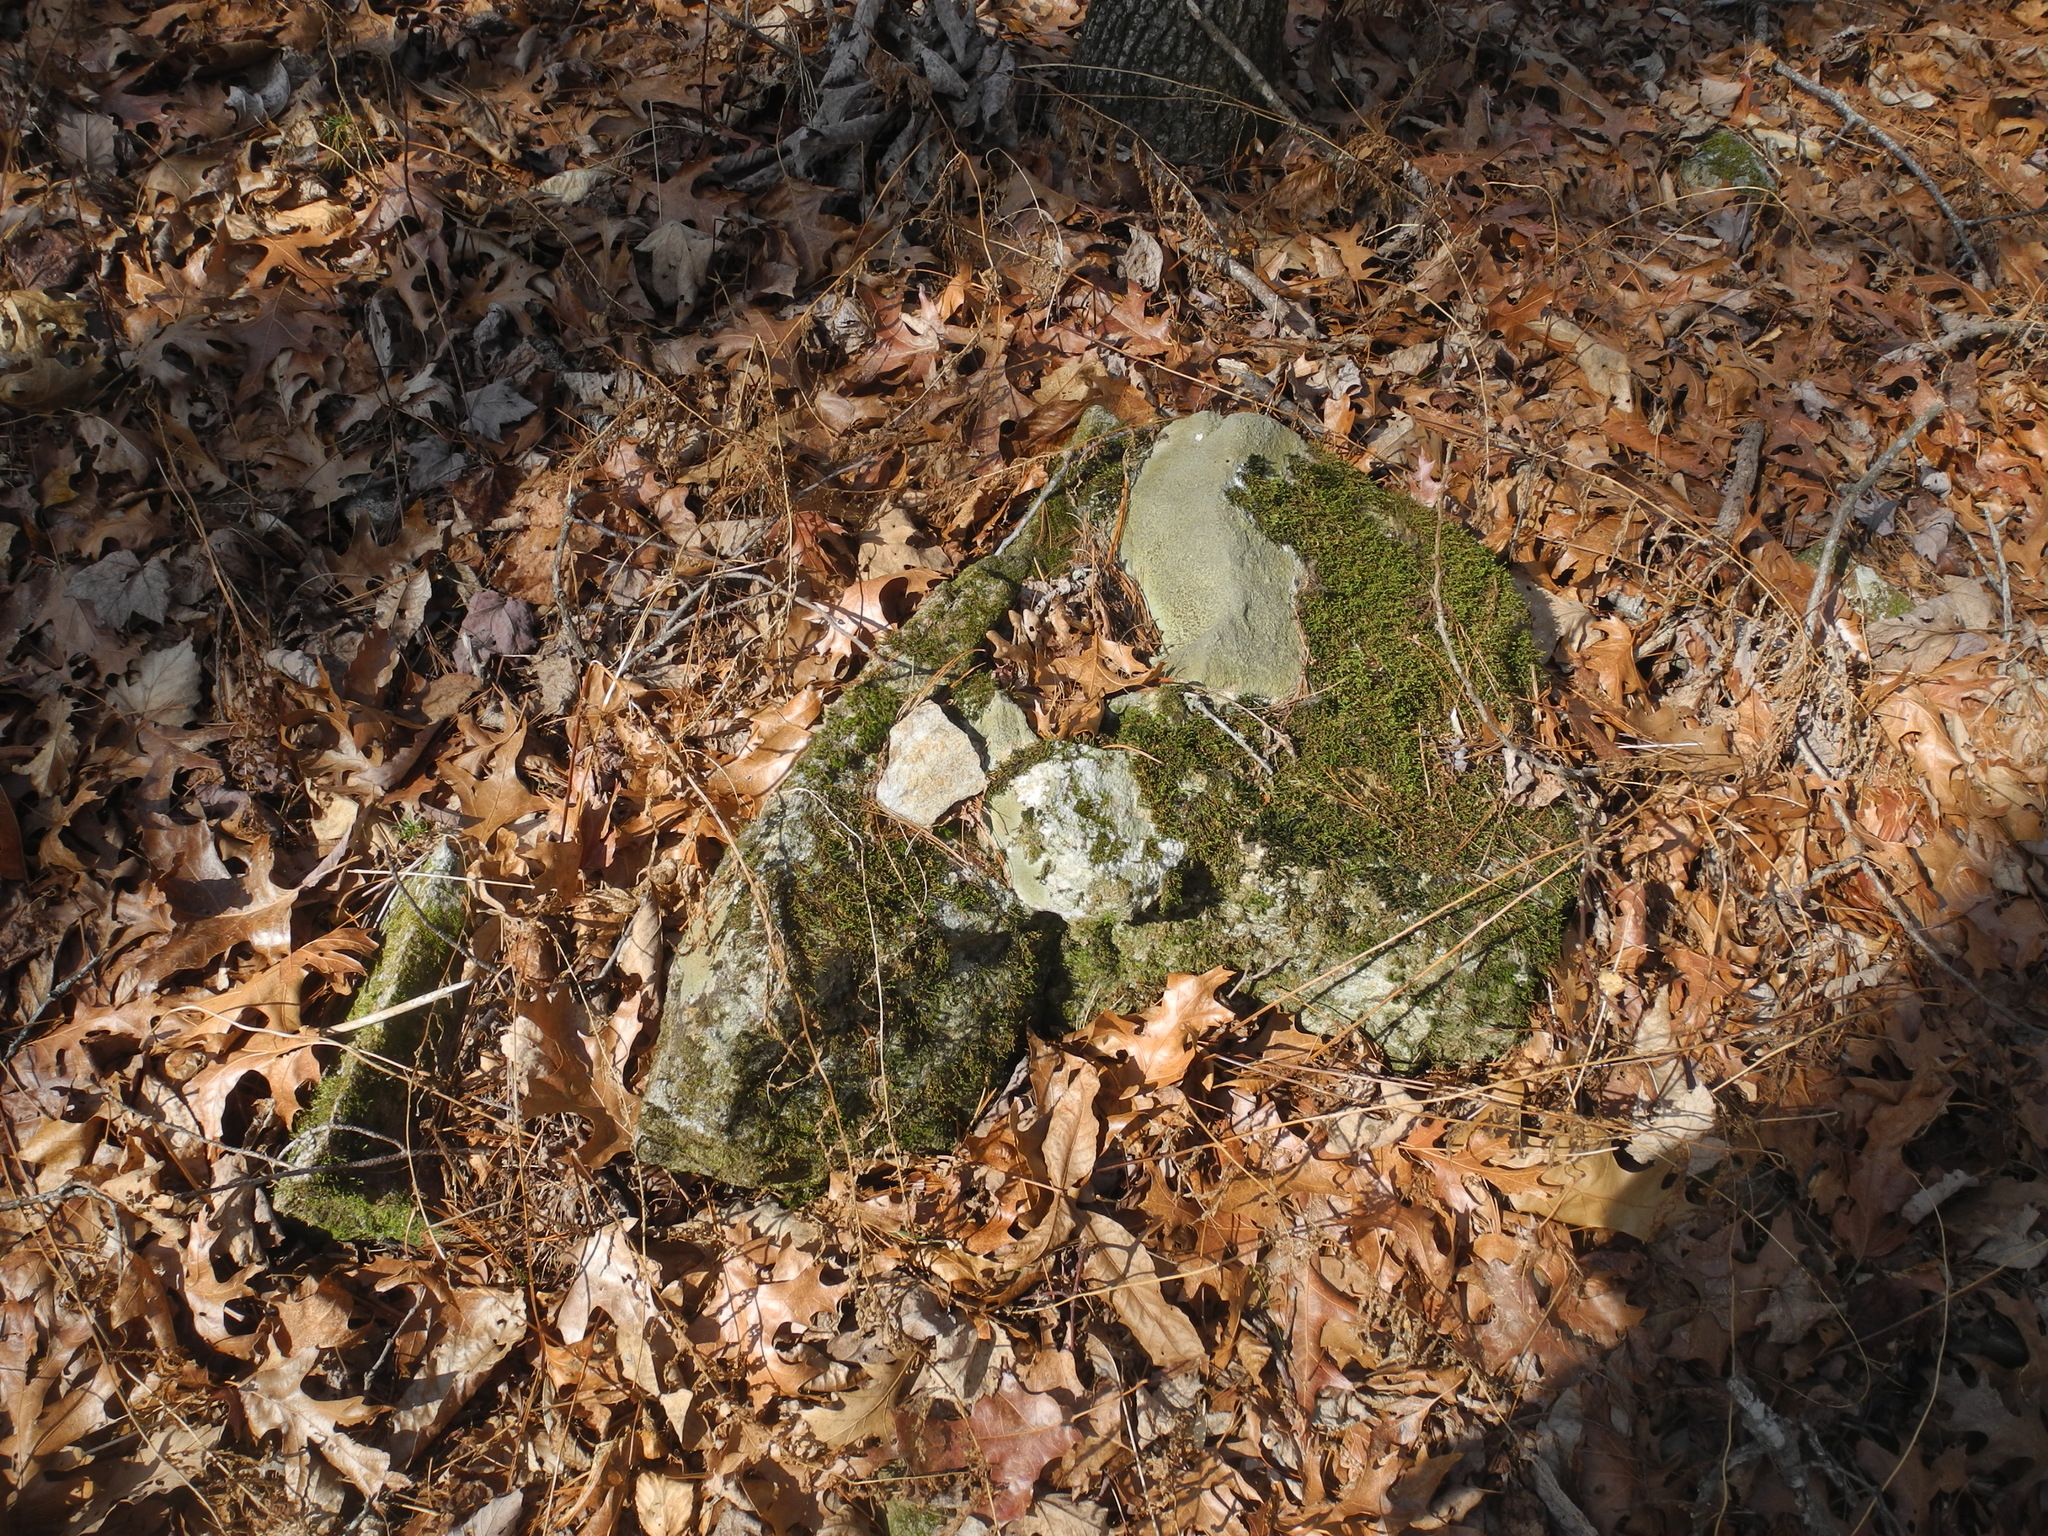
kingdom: Fungi
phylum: Ascomycota
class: Lecanoromycetes
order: Lecideales
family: Lecideaceae
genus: Porpidia
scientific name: Porpidia albocaerulescens
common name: Smokey-eyed boulder lichen
